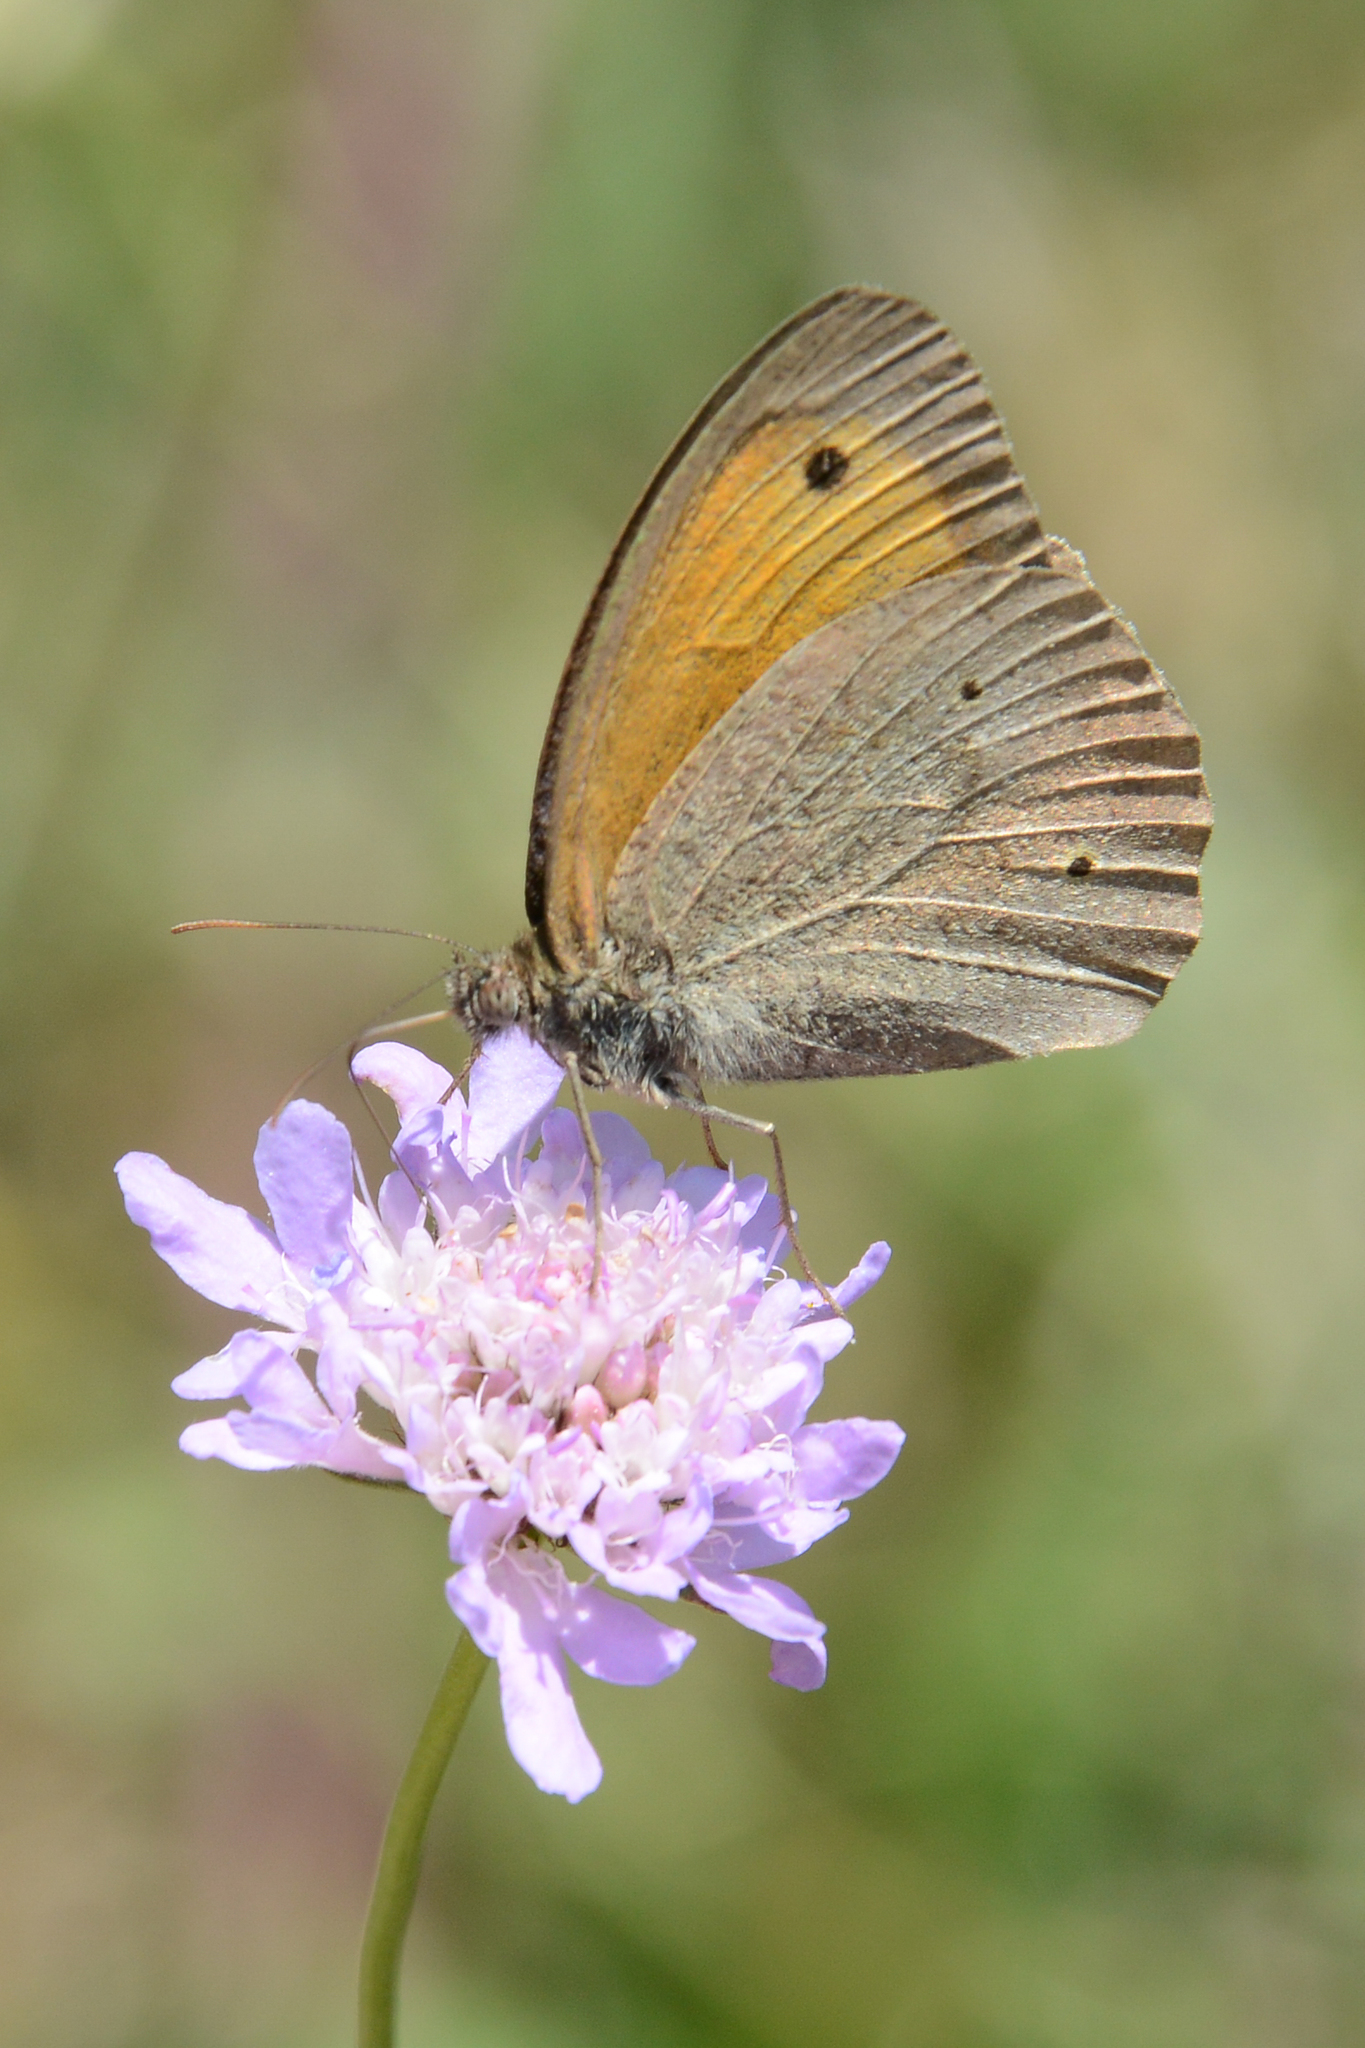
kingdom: Animalia
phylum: Arthropoda
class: Insecta
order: Lepidoptera
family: Nymphalidae
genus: Maniola
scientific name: Maniola jurtina
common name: Meadow brown
